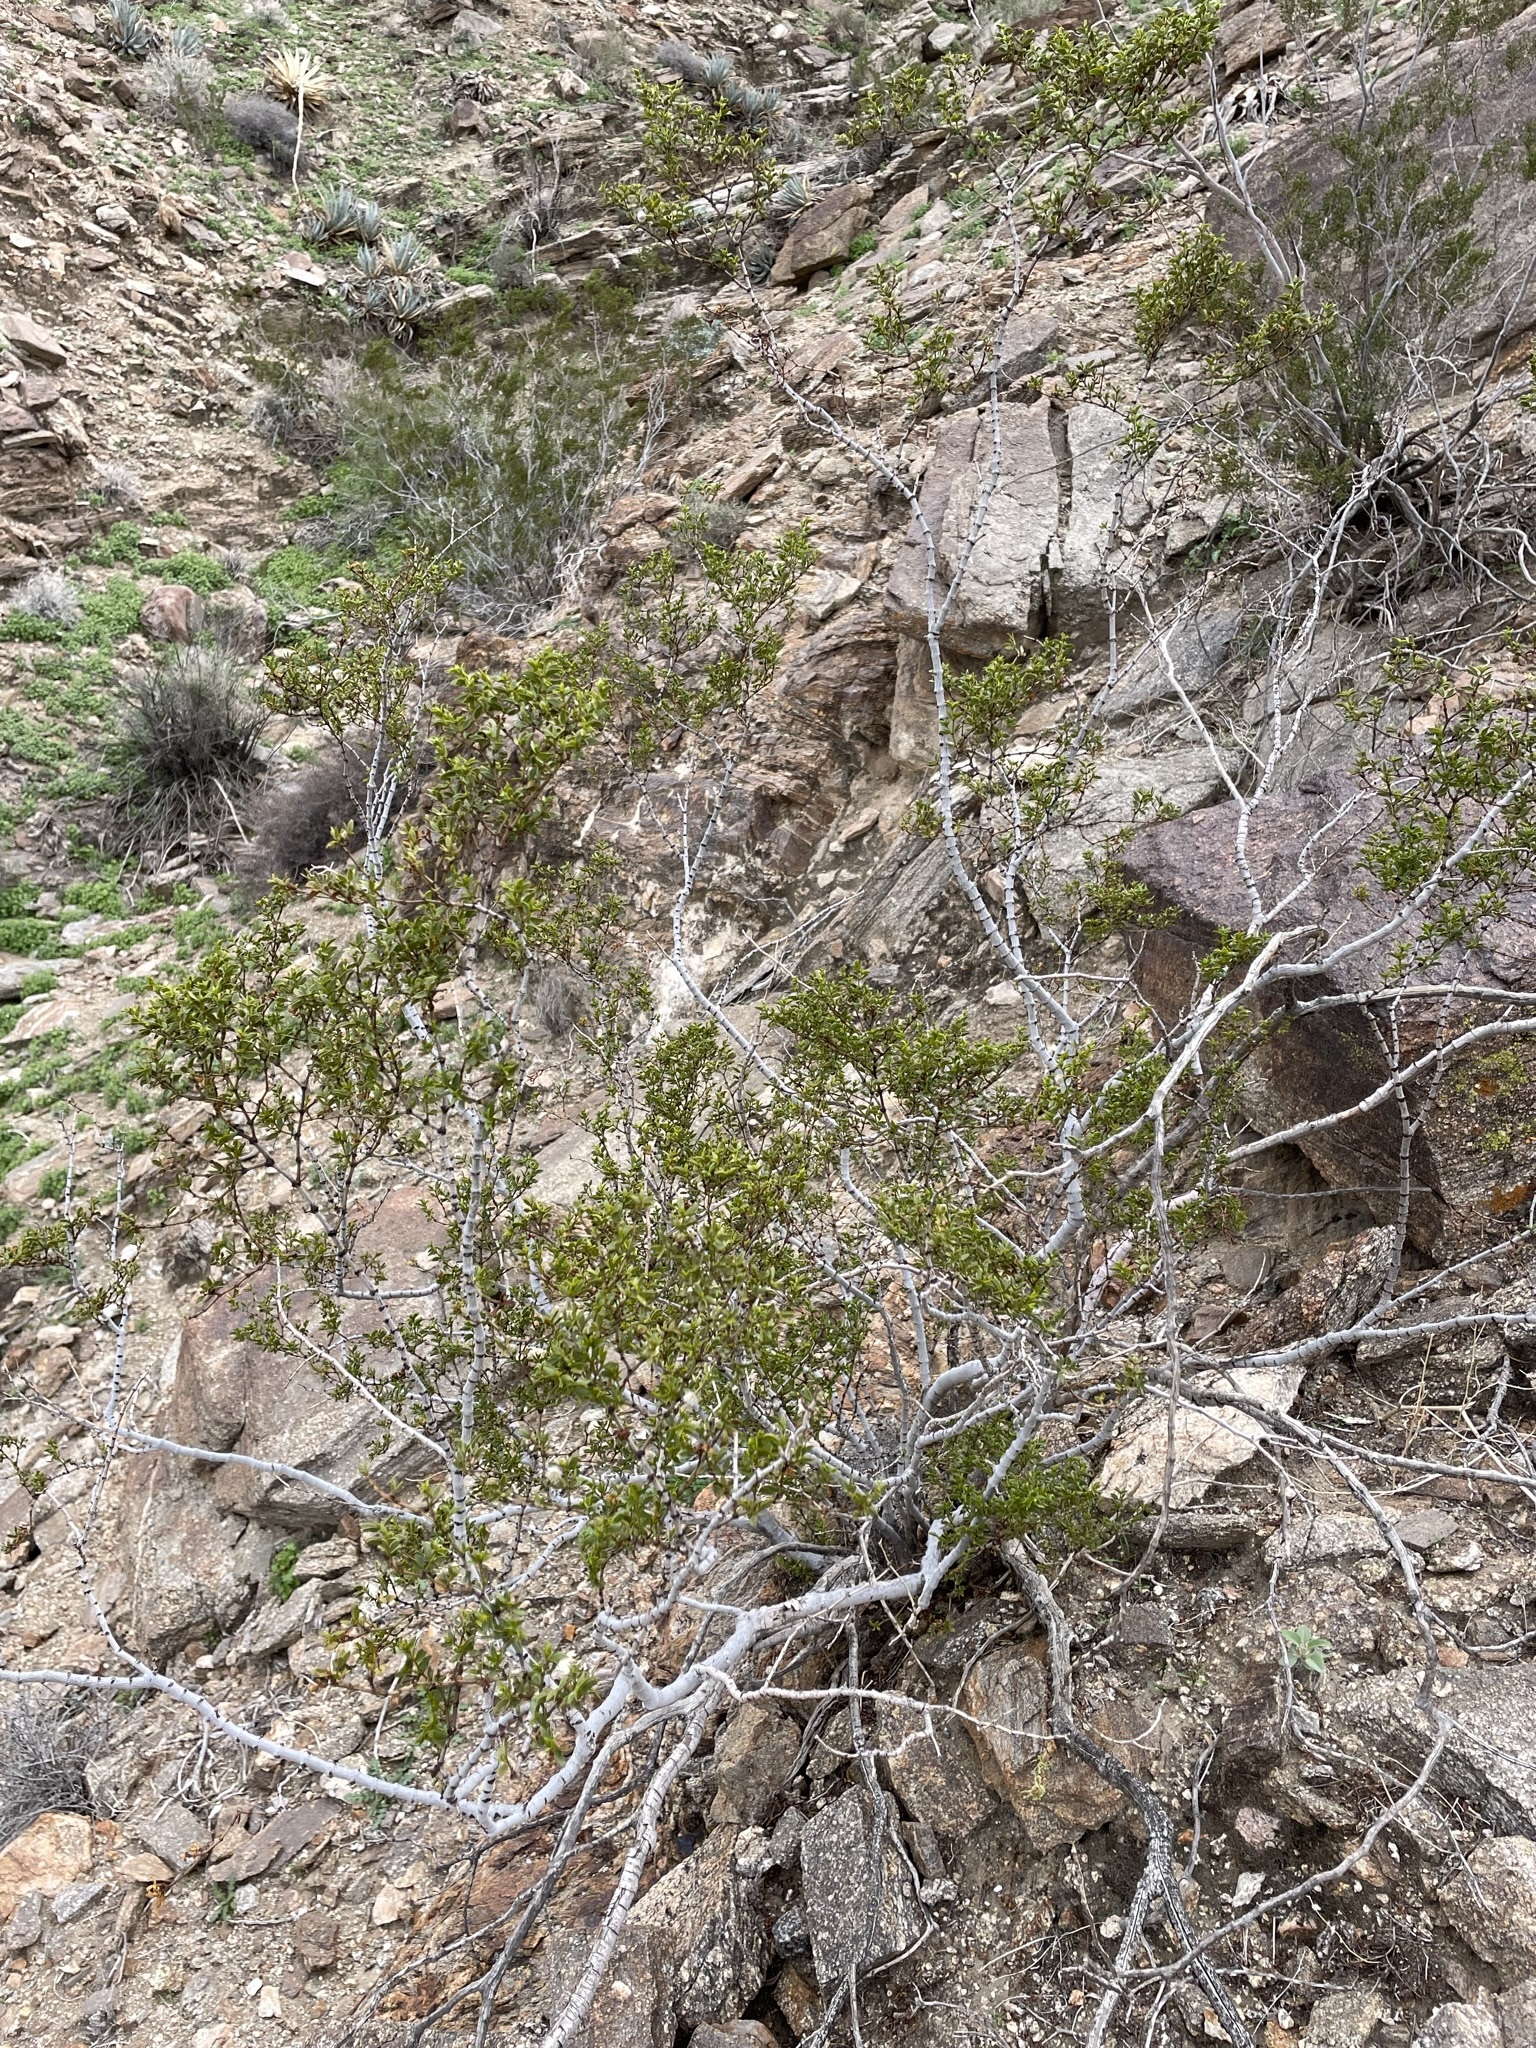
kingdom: Plantae
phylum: Tracheophyta
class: Magnoliopsida
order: Zygophyllales
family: Zygophyllaceae
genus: Larrea
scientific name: Larrea tridentata
